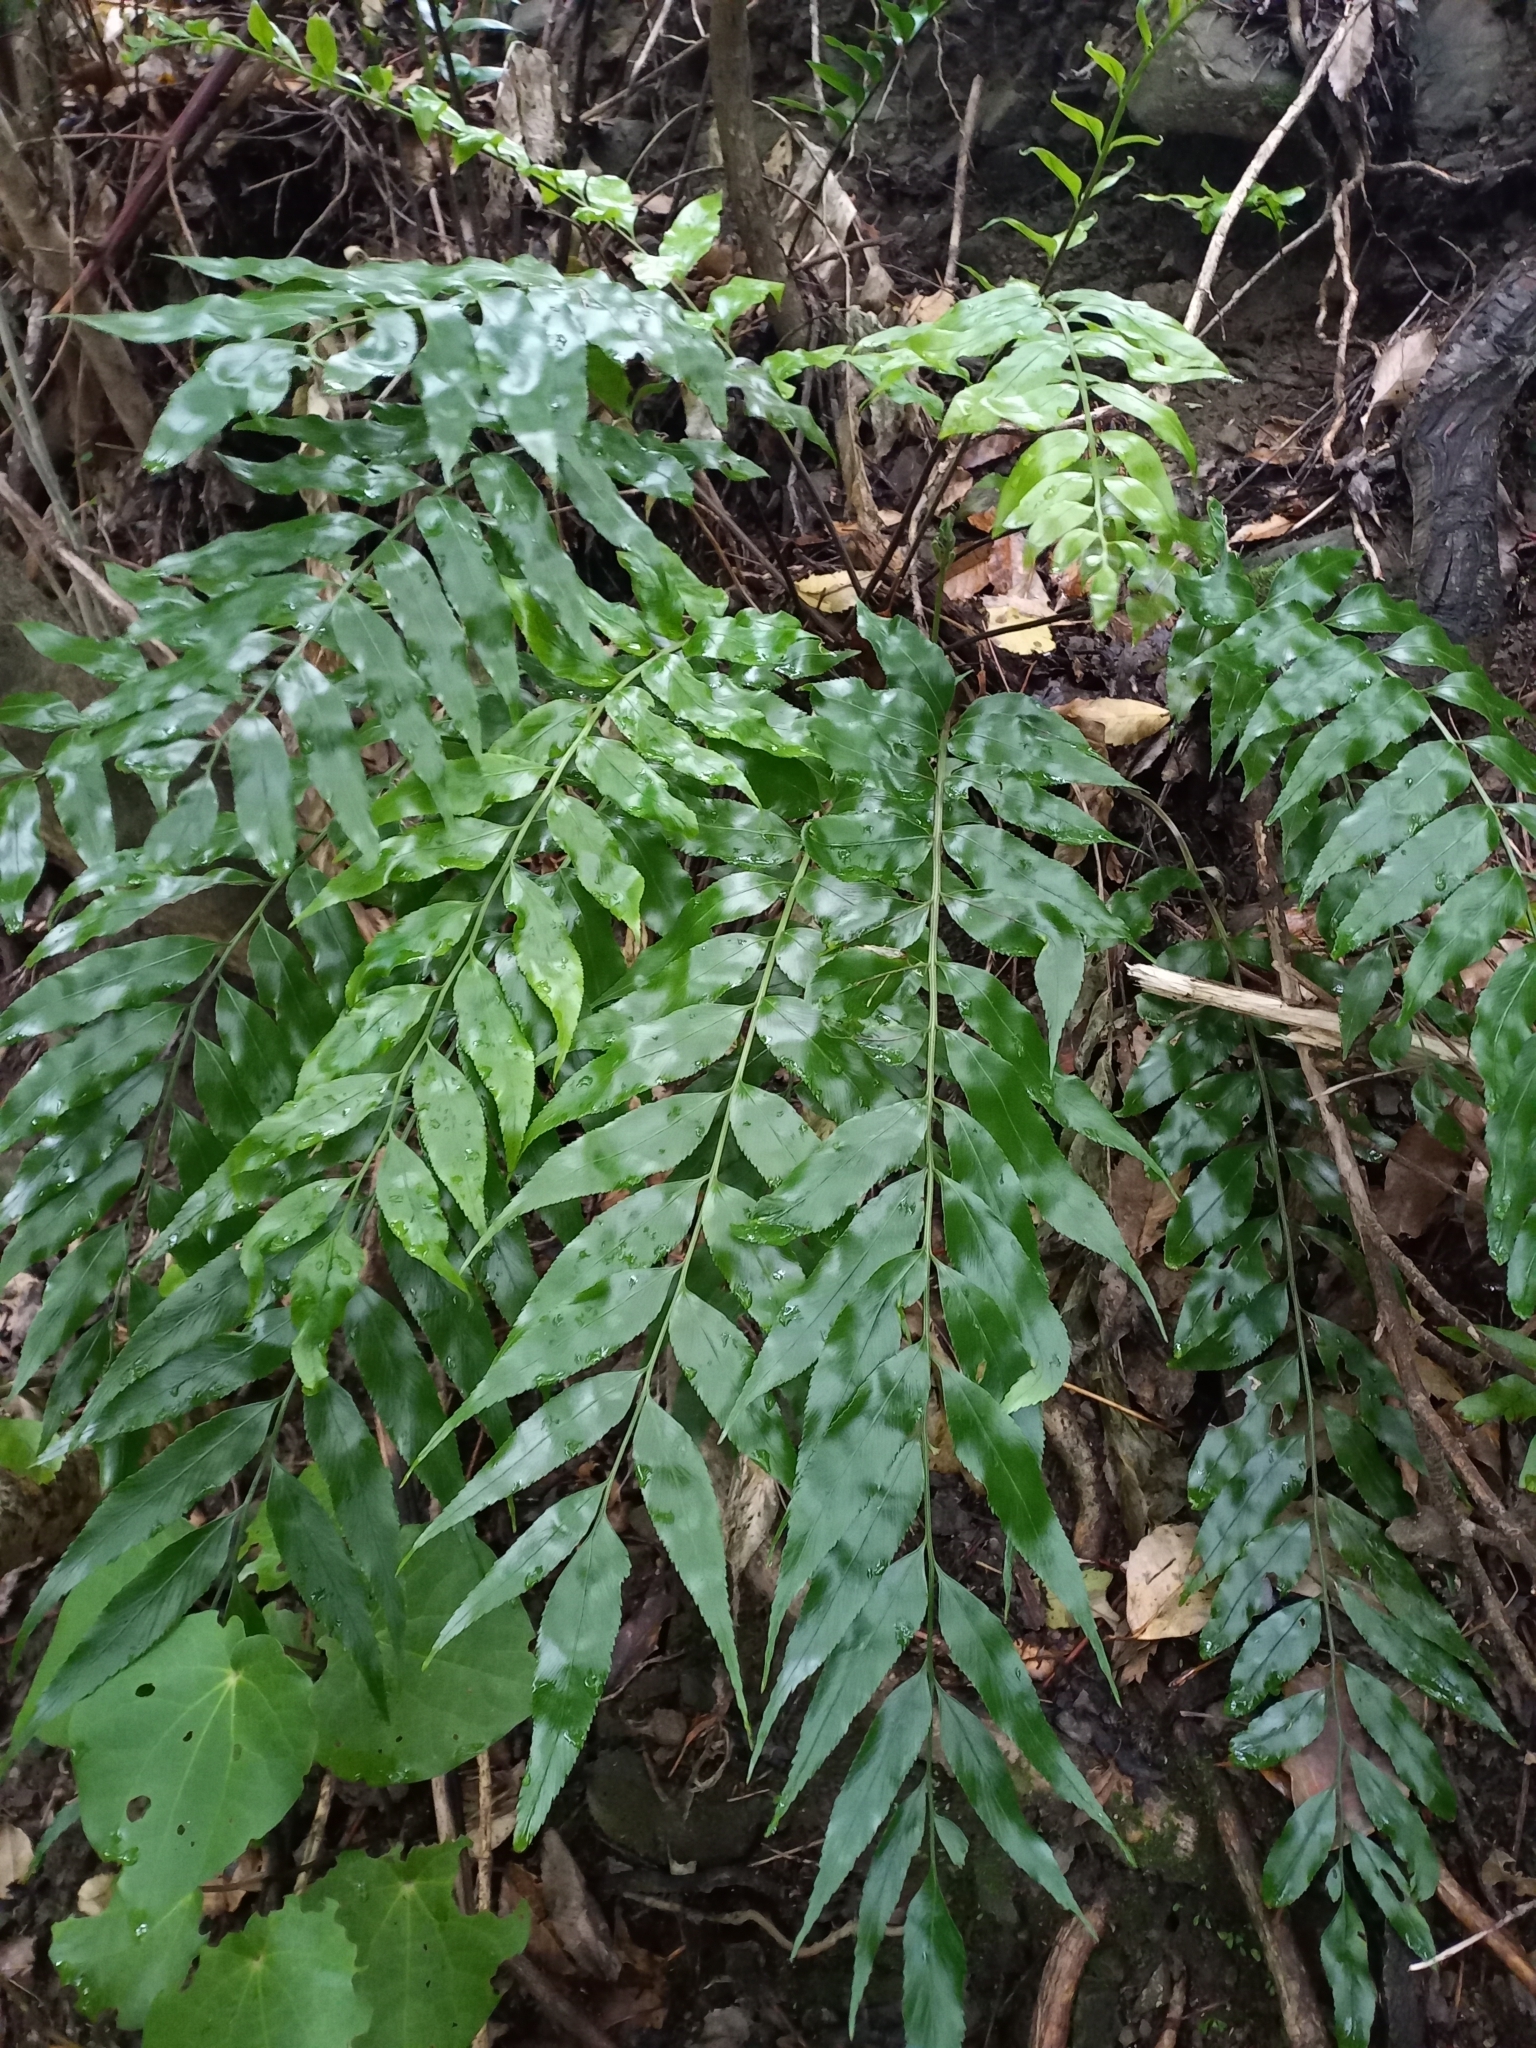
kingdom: Plantae
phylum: Tracheophyta
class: Polypodiopsida
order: Polypodiales
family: Aspleniaceae
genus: Asplenium
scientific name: Asplenium oblongifolium
